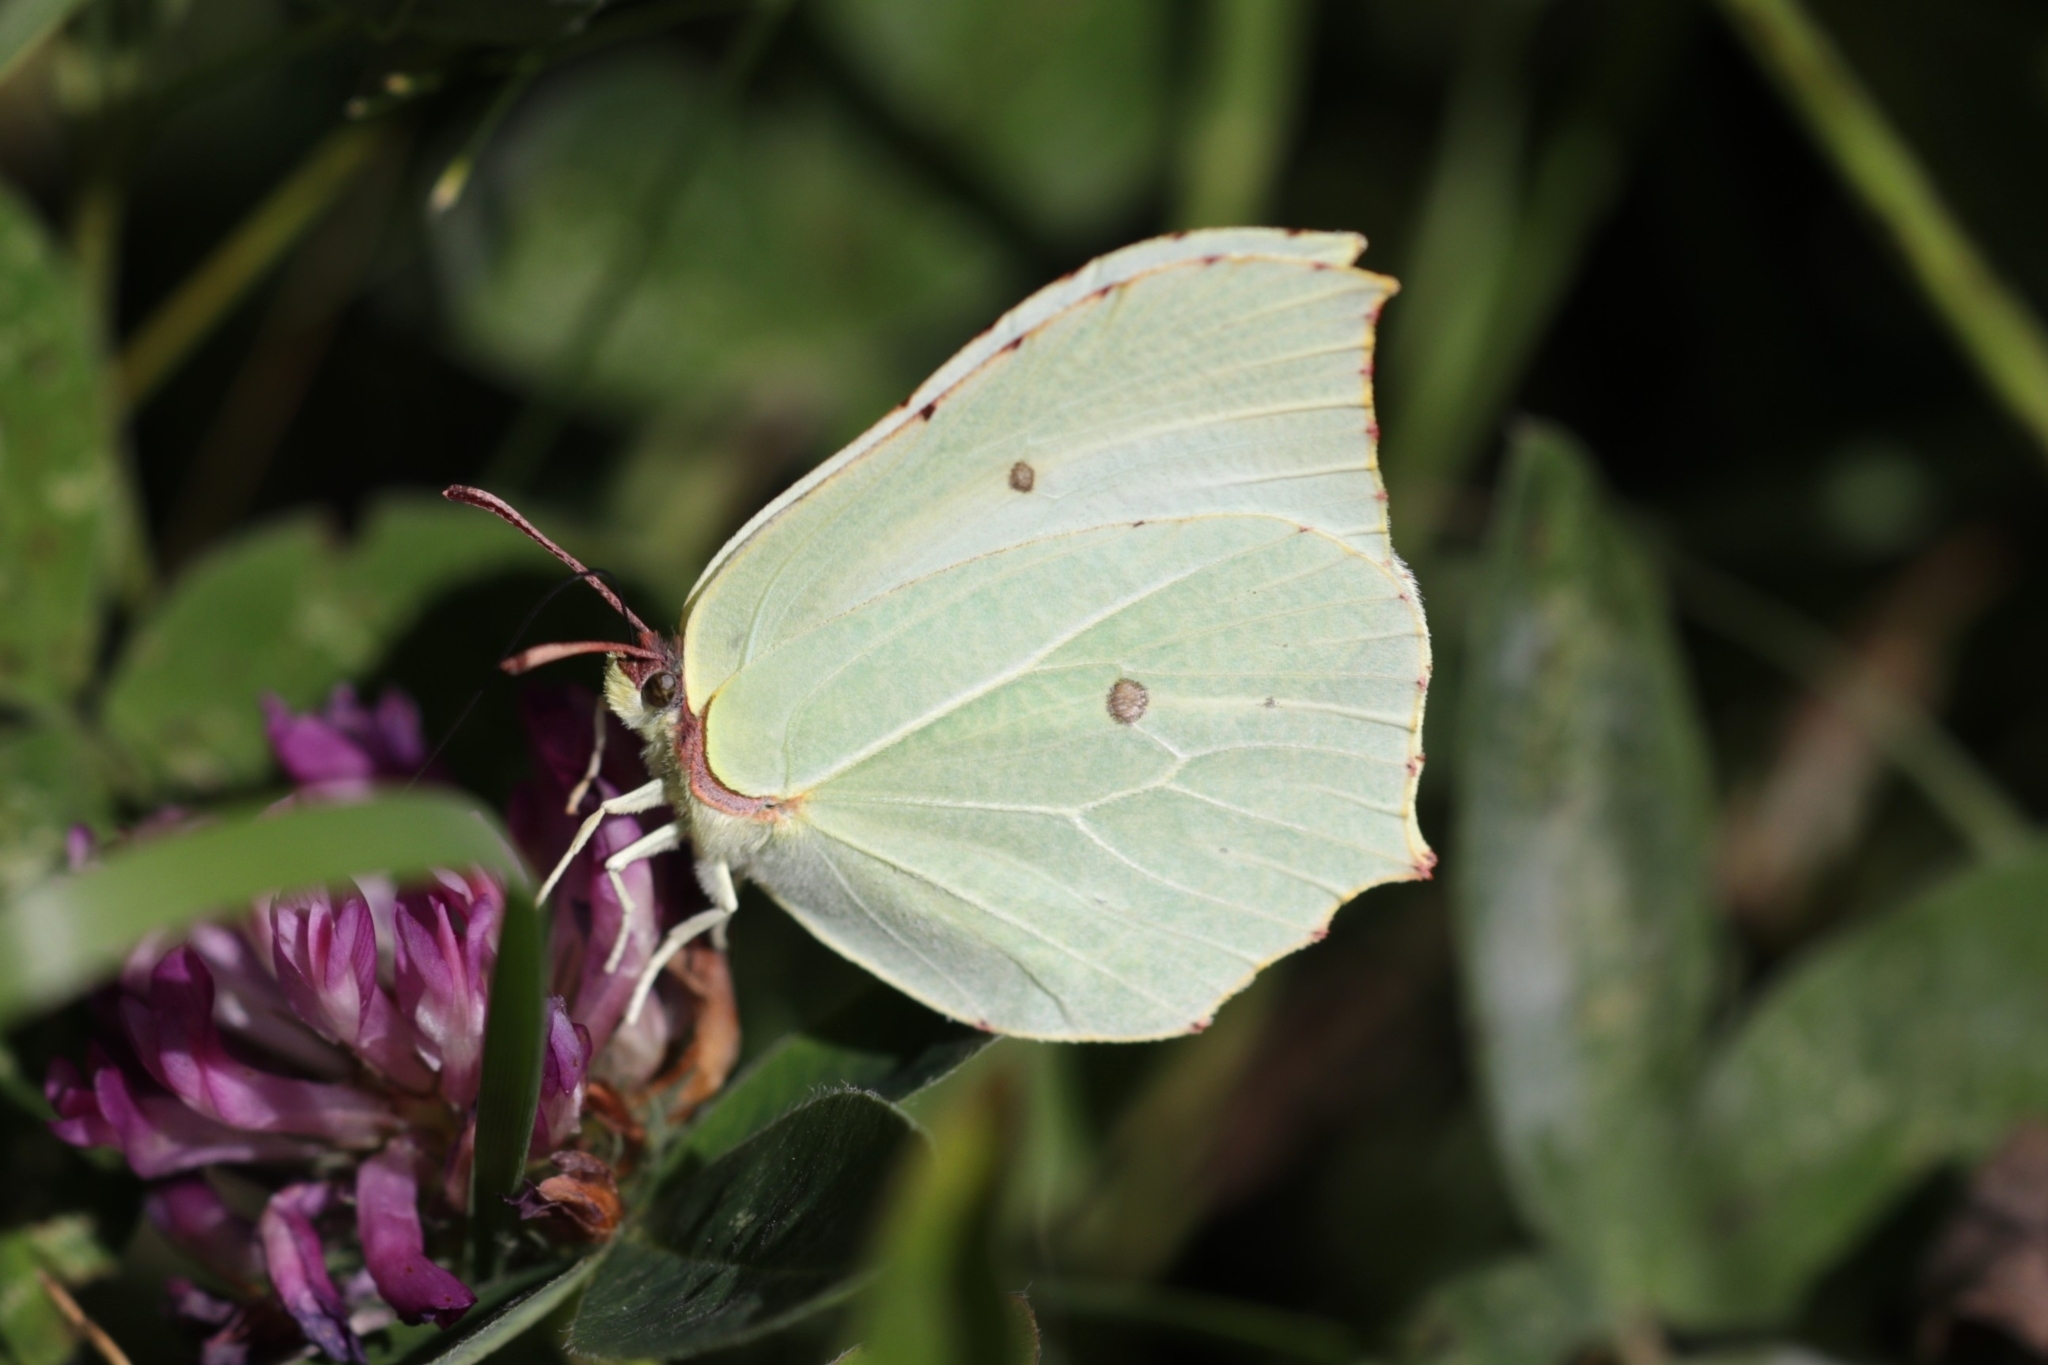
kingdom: Animalia
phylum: Arthropoda
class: Insecta
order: Lepidoptera
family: Pieridae
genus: Gonepteryx
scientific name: Gonepteryx rhamni
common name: Brimstone
